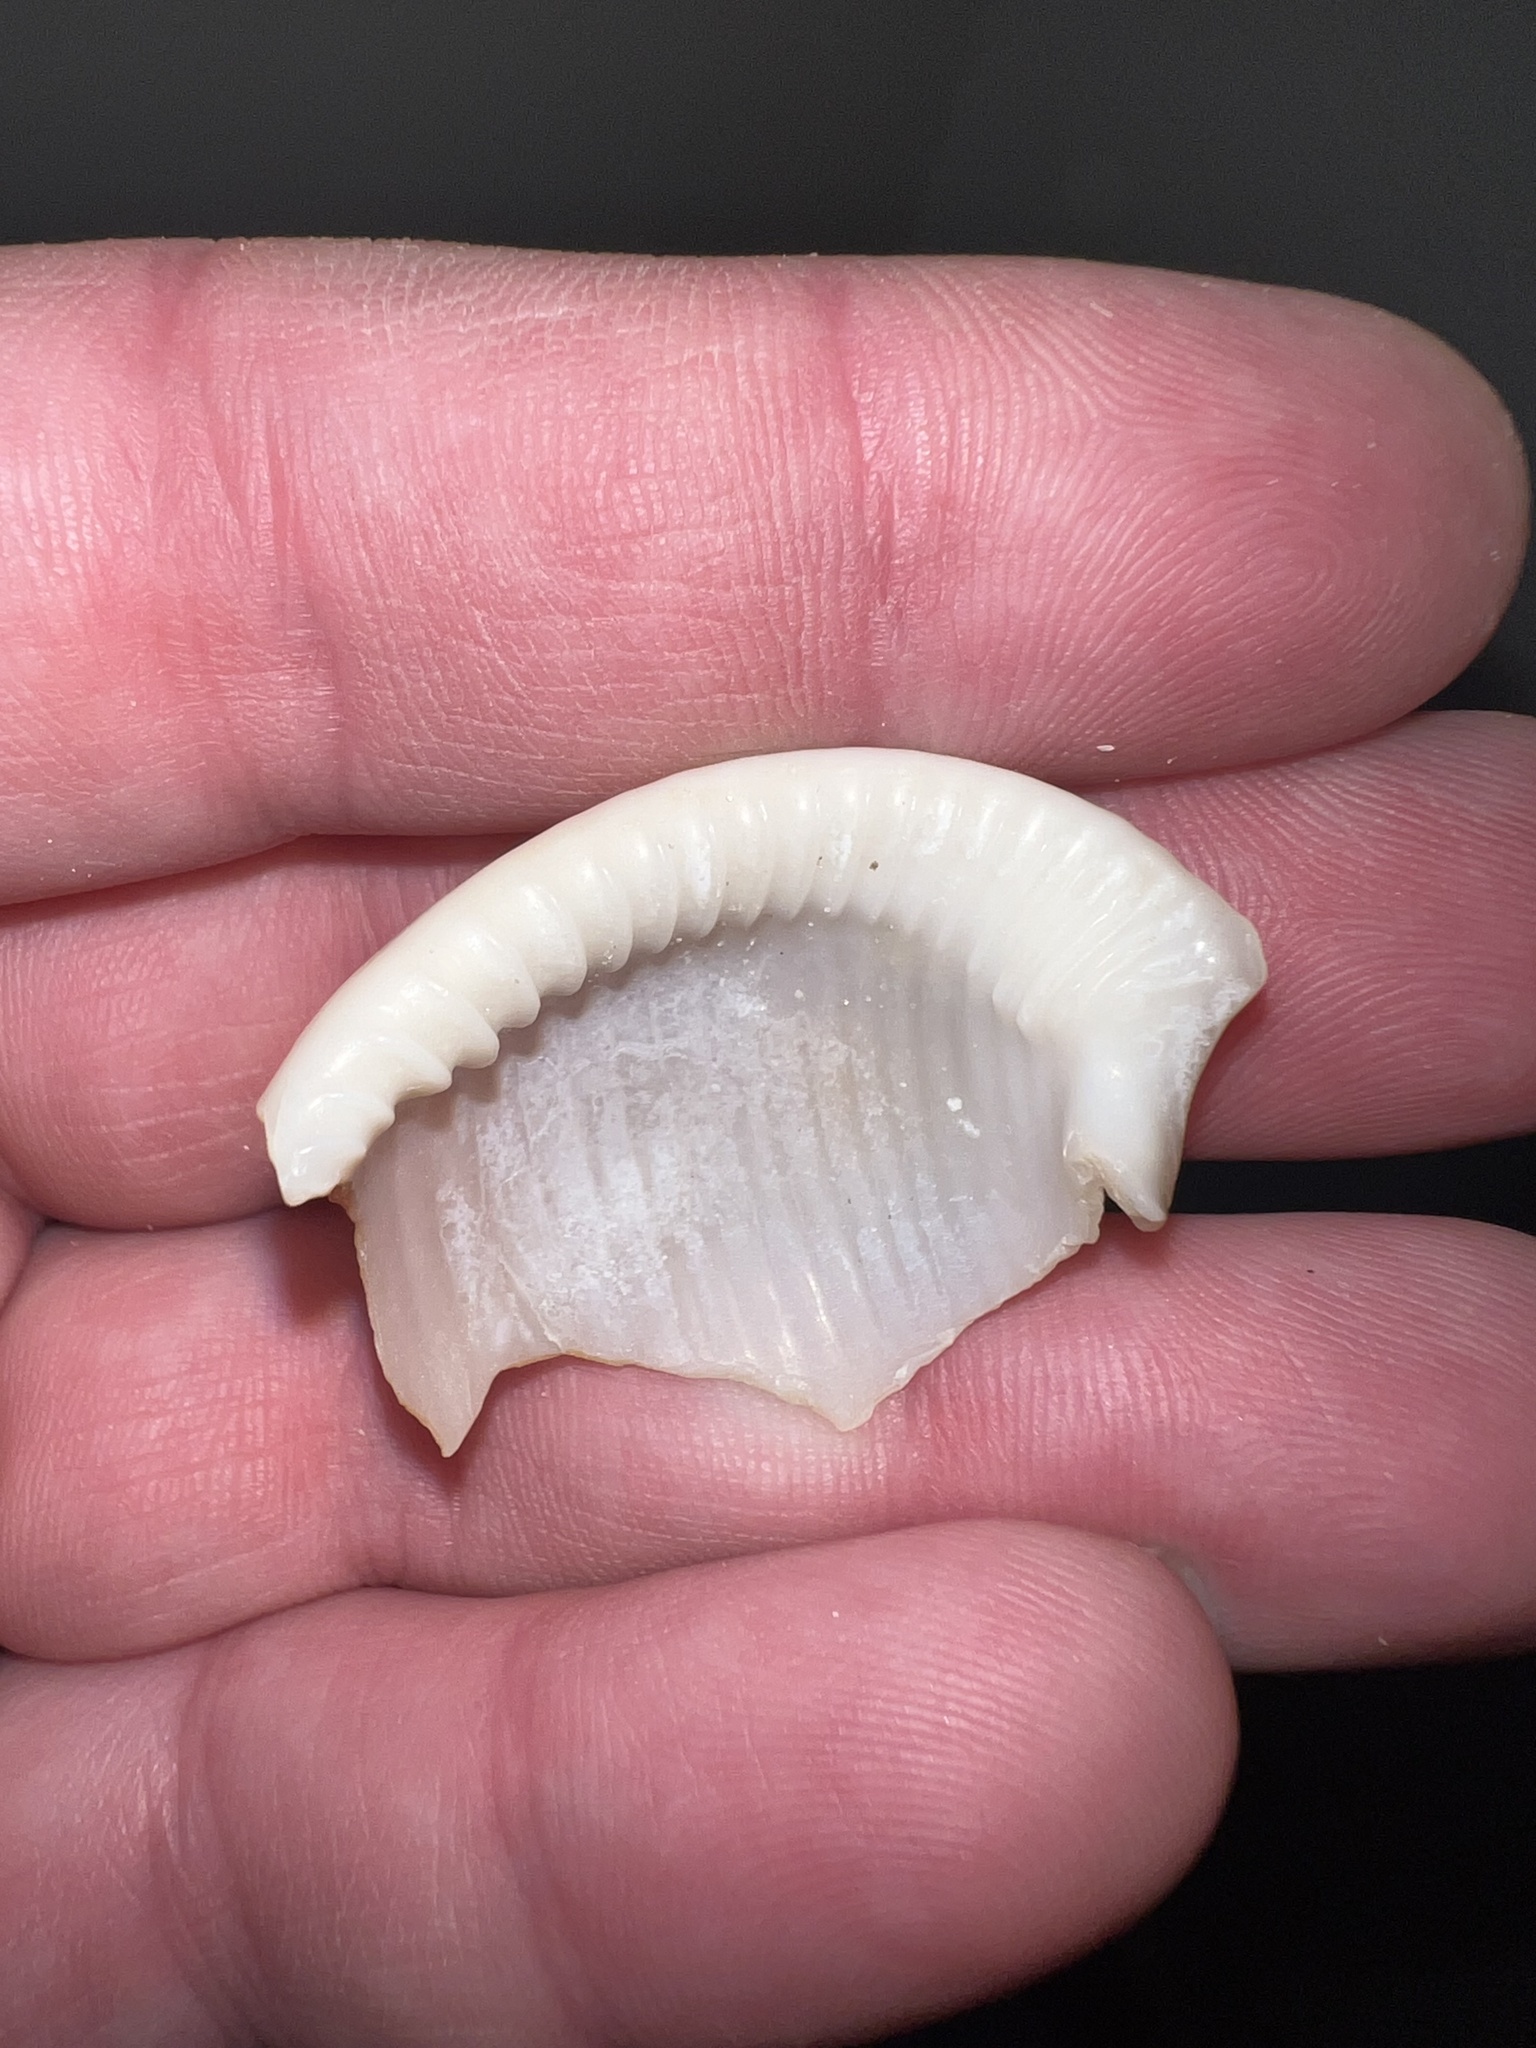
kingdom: Animalia
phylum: Mollusca
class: Gastropoda
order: Littorinimorpha
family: Cassidae
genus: Semicassis
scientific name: Semicassis granulata
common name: Scotch bonnet
